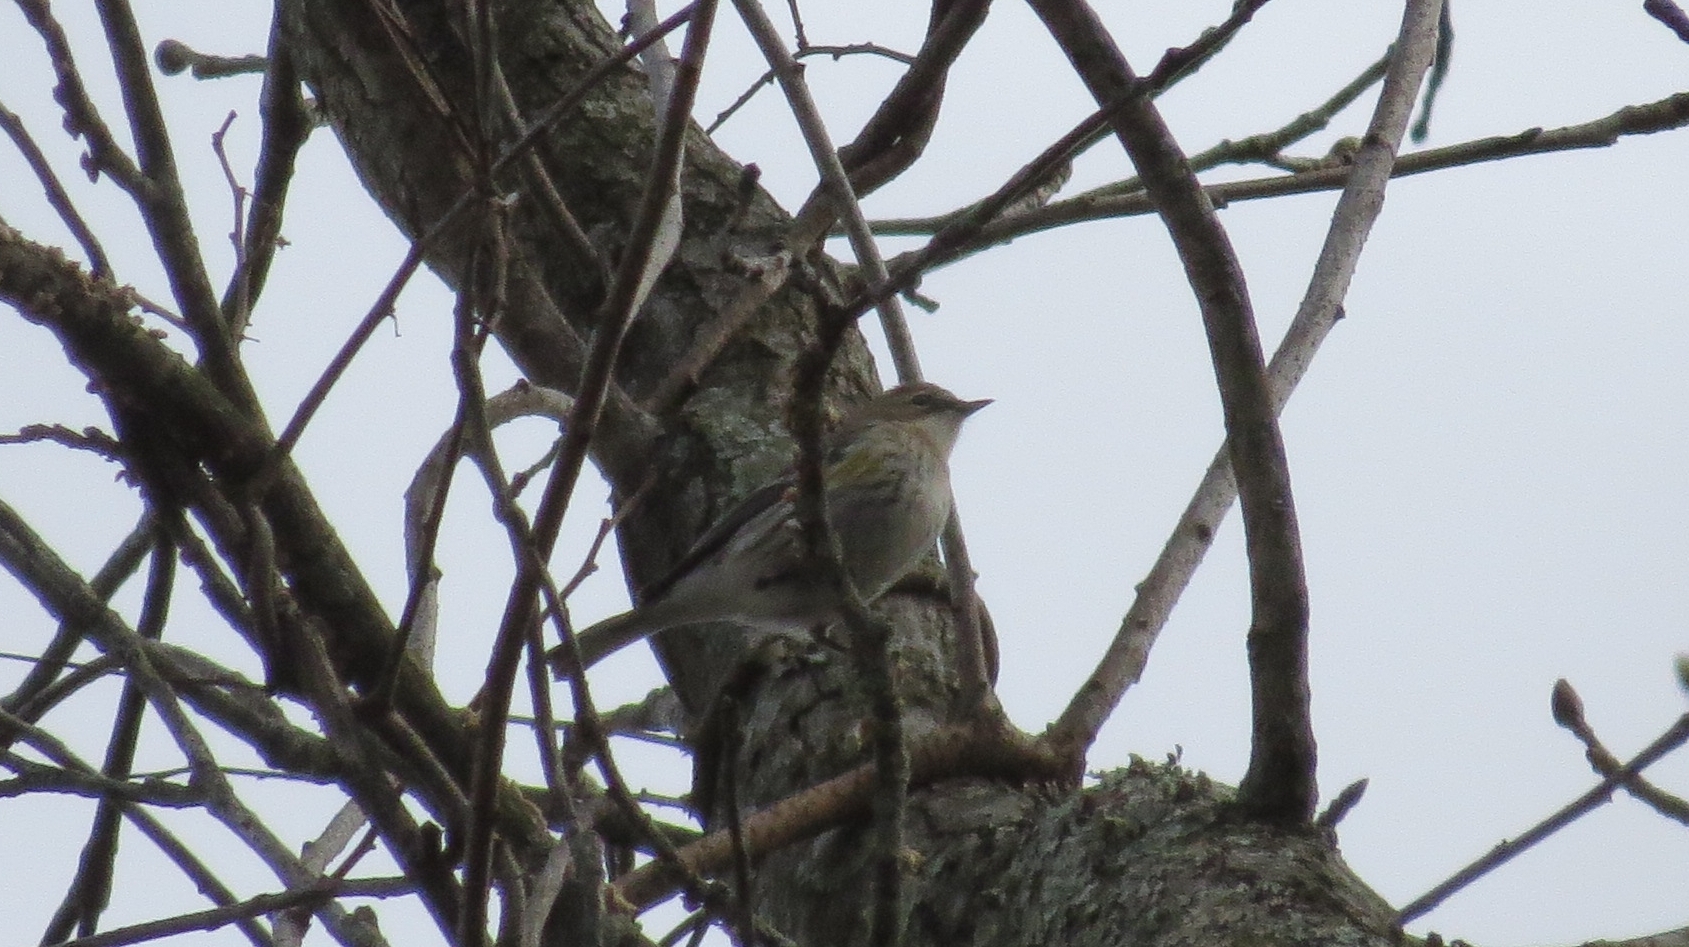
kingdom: Animalia
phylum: Chordata
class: Aves
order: Passeriformes
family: Parulidae
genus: Setophaga
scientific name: Setophaga coronata
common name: Myrtle warbler
